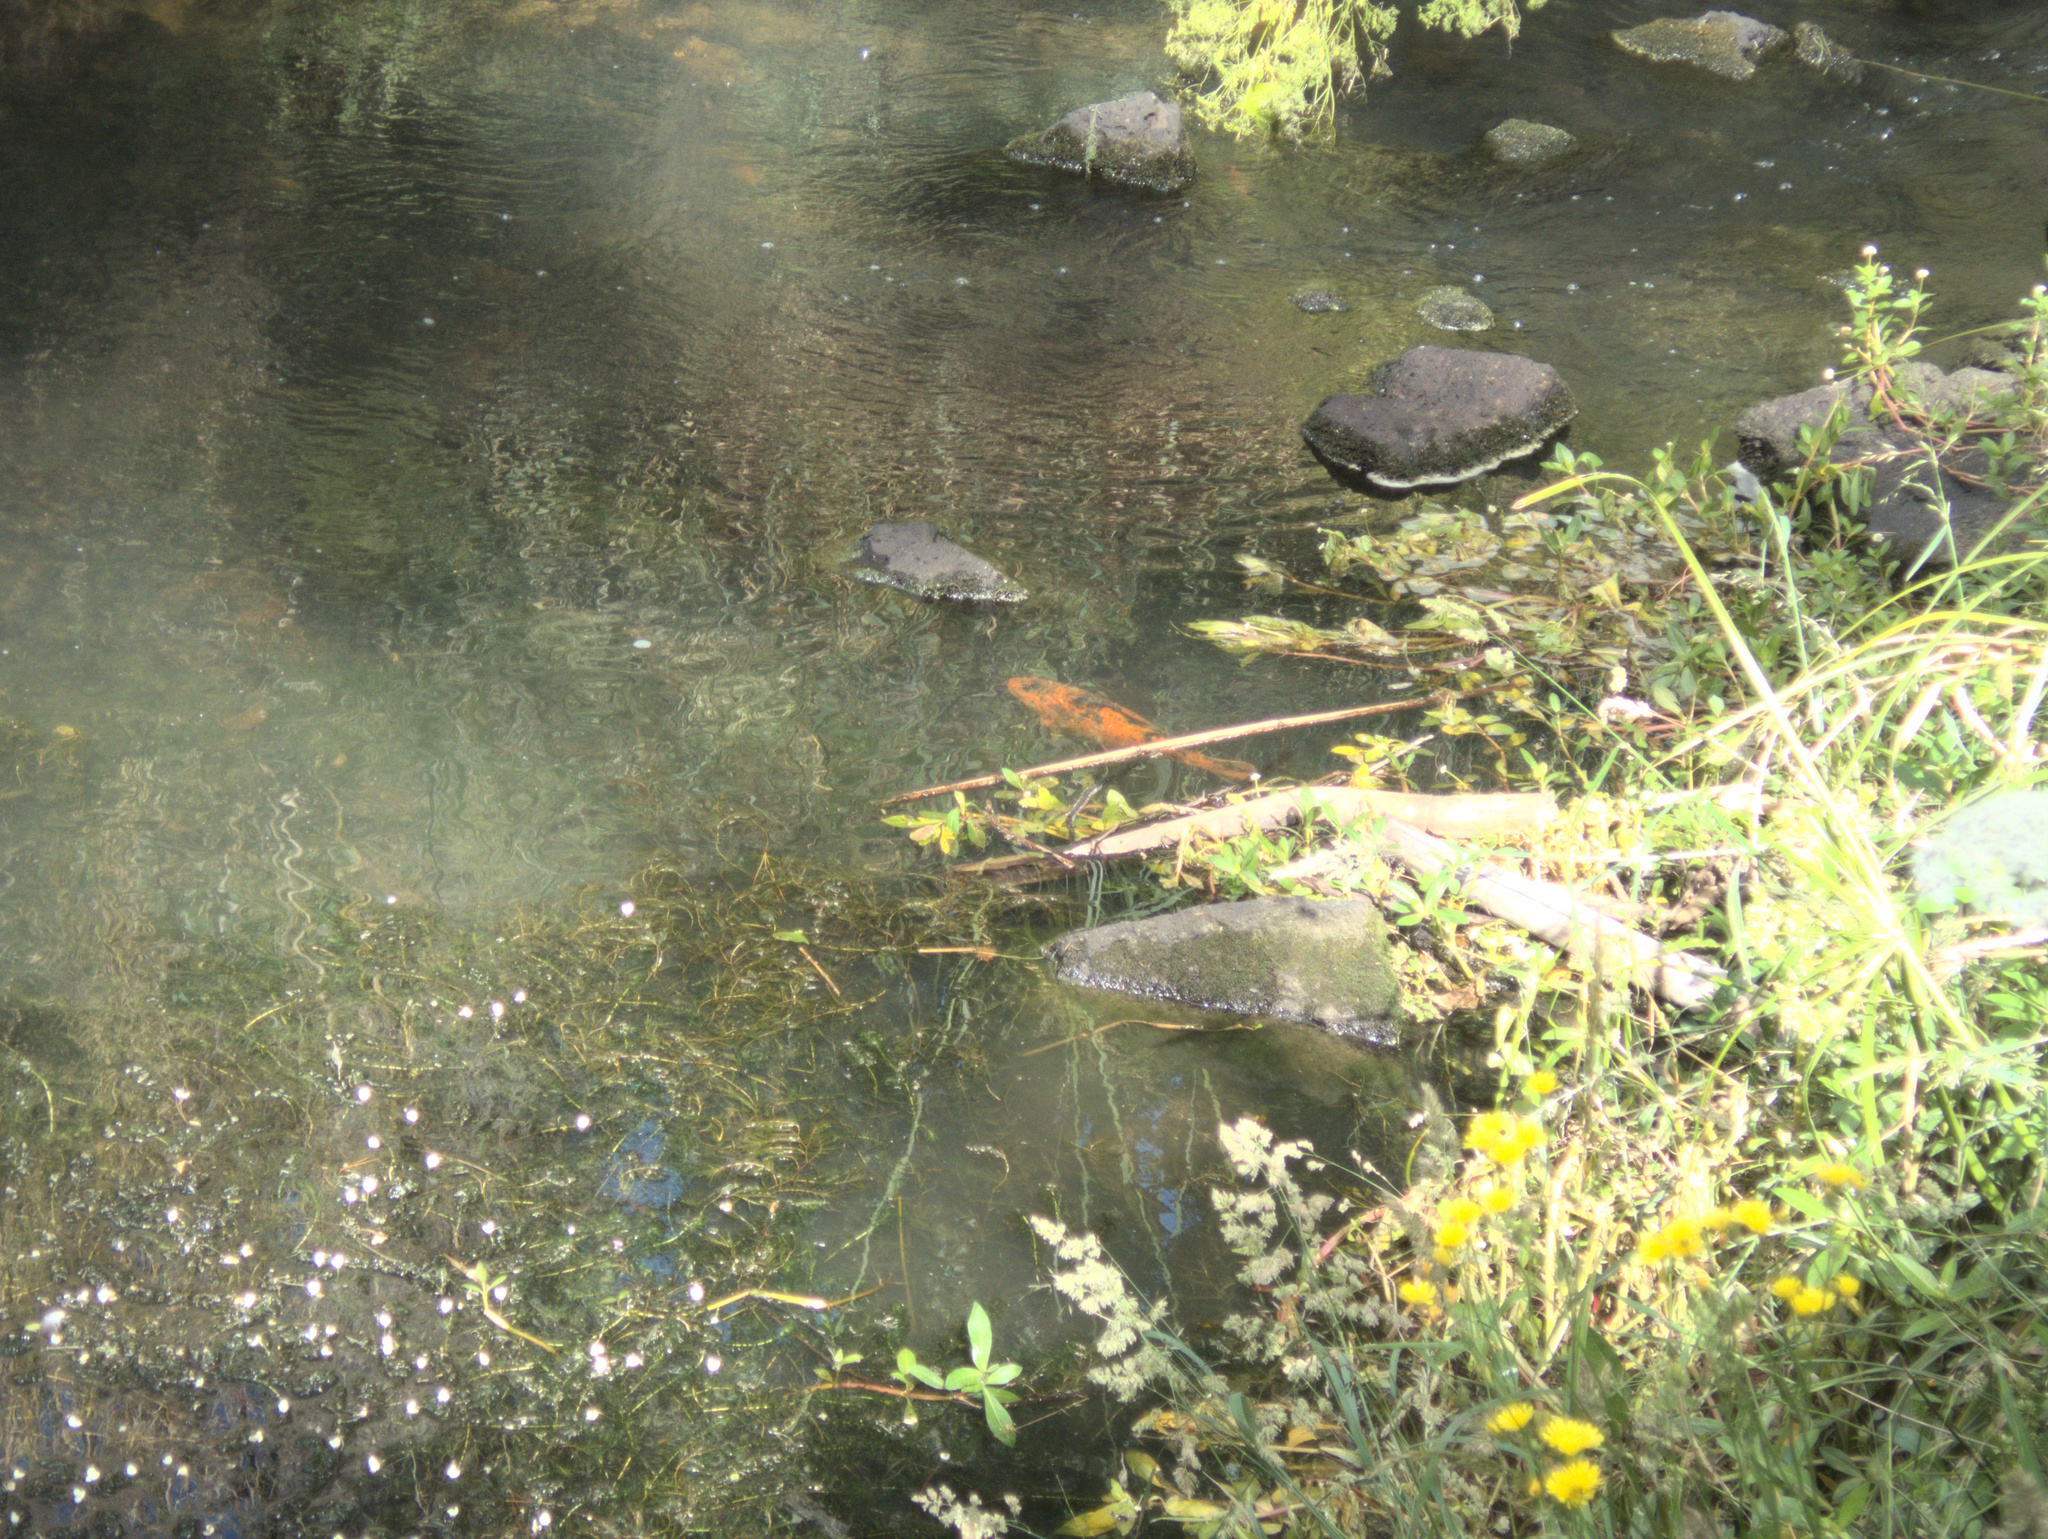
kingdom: Animalia
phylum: Chordata
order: Cypriniformes
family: Cyprinidae
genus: Cyprinus
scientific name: Cyprinus rubrofuscus
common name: Koi
